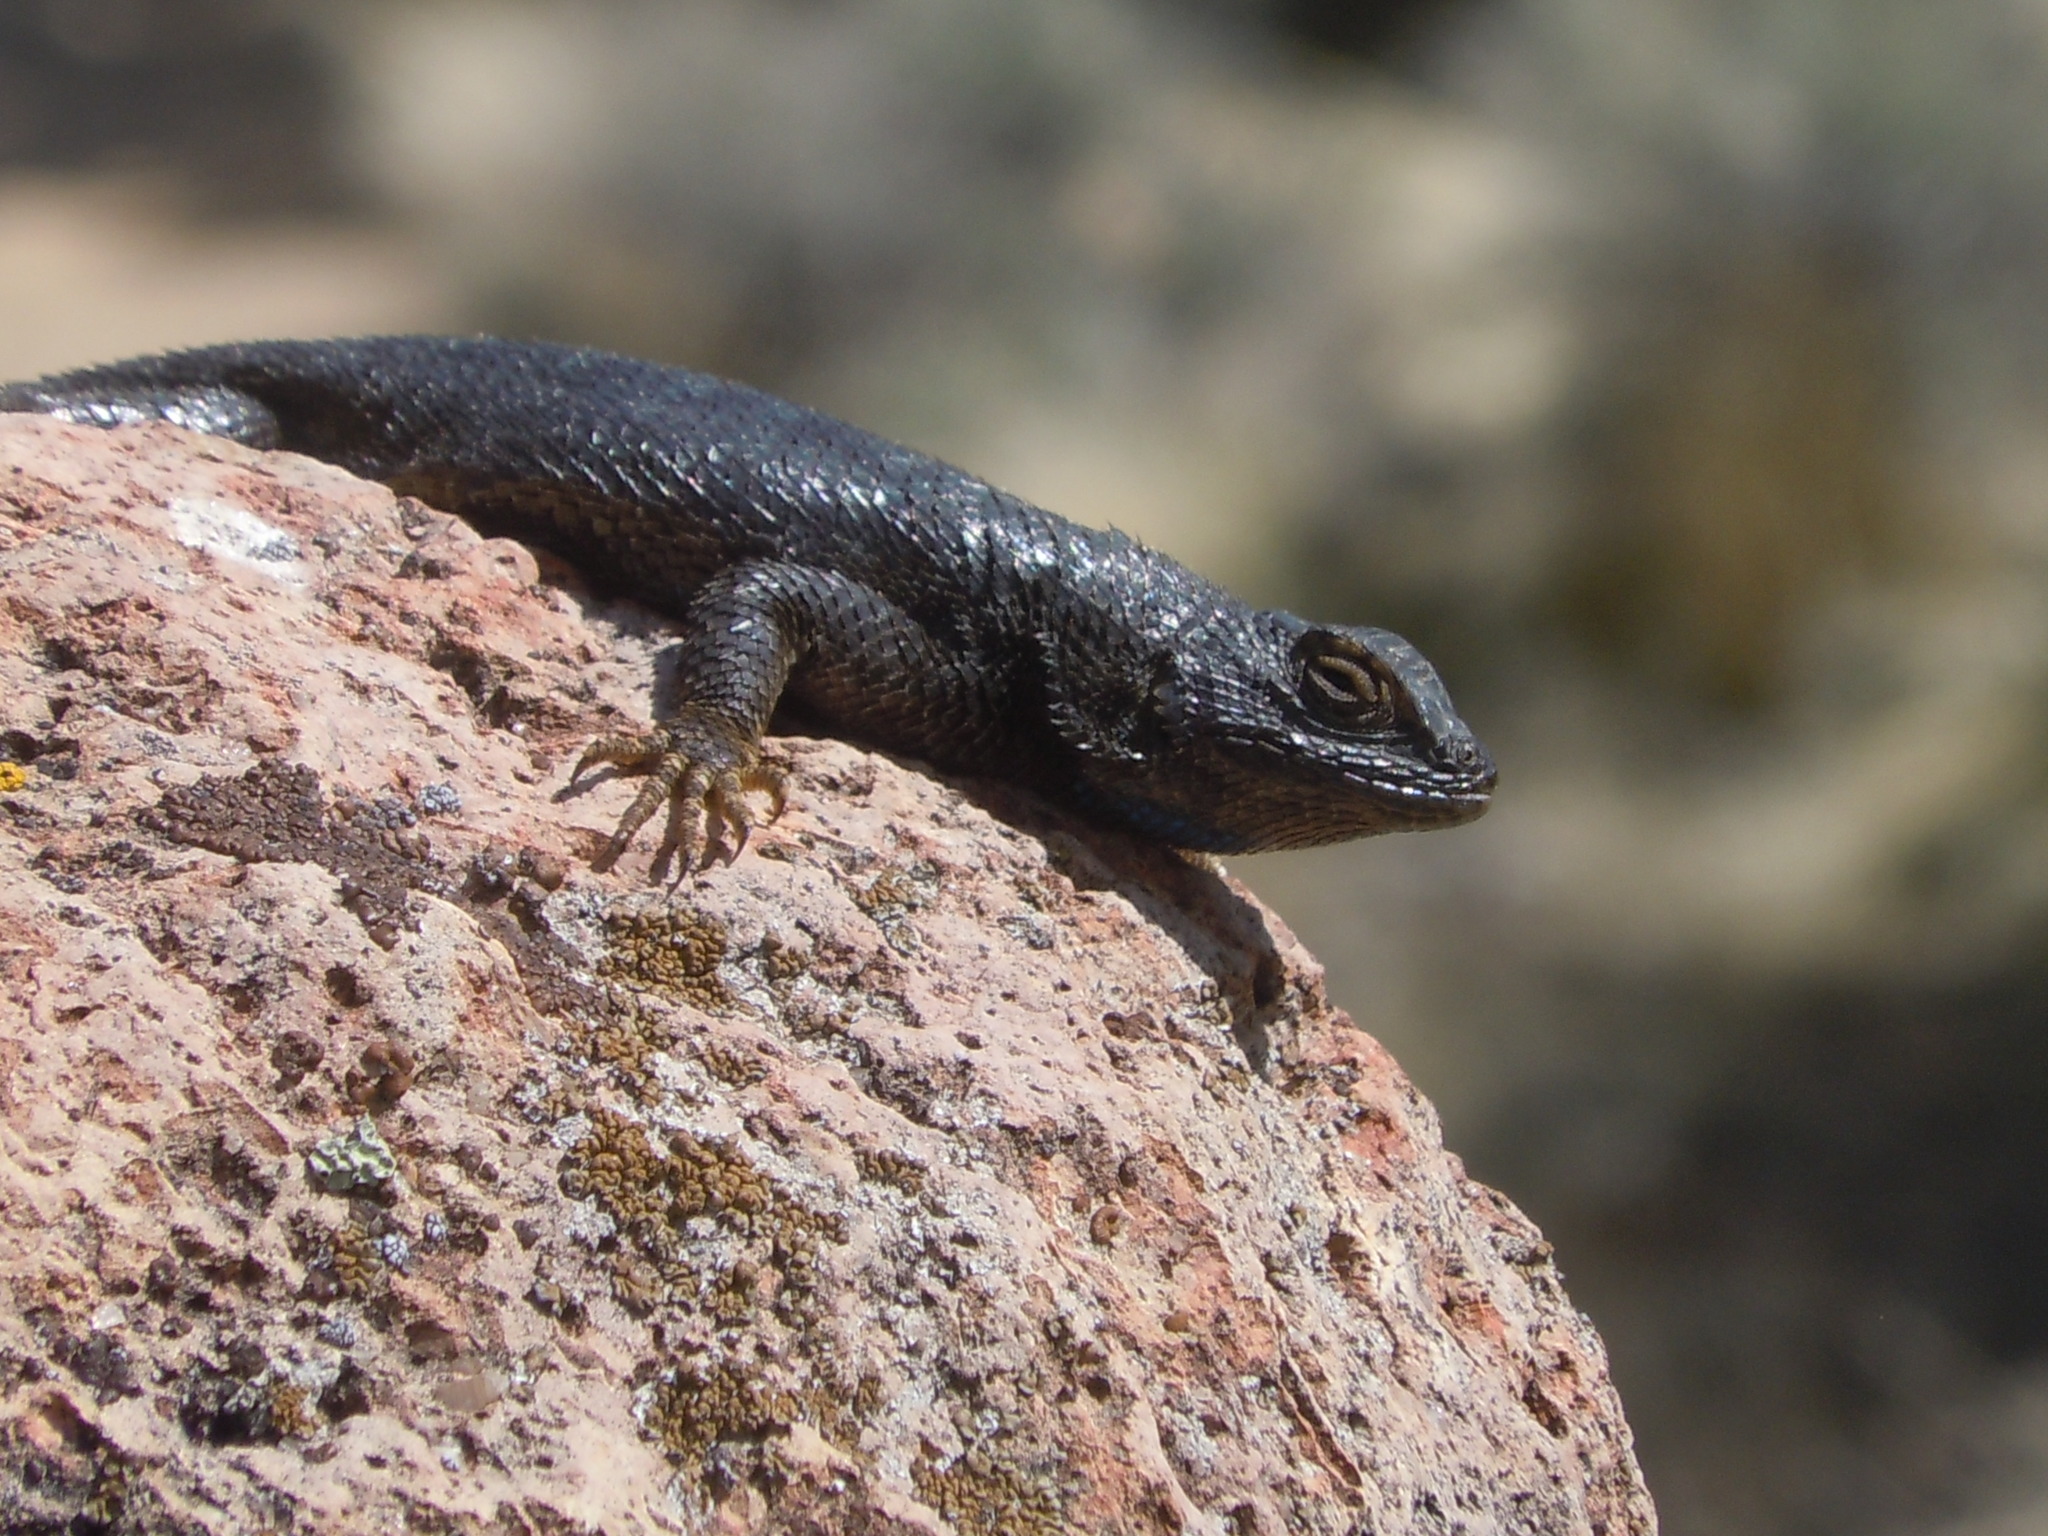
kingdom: Animalia
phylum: Chordata
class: Squamata
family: Phrynosomatidae
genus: Sceloporus
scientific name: Sceloporus occidentalis
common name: Western fence lizard
